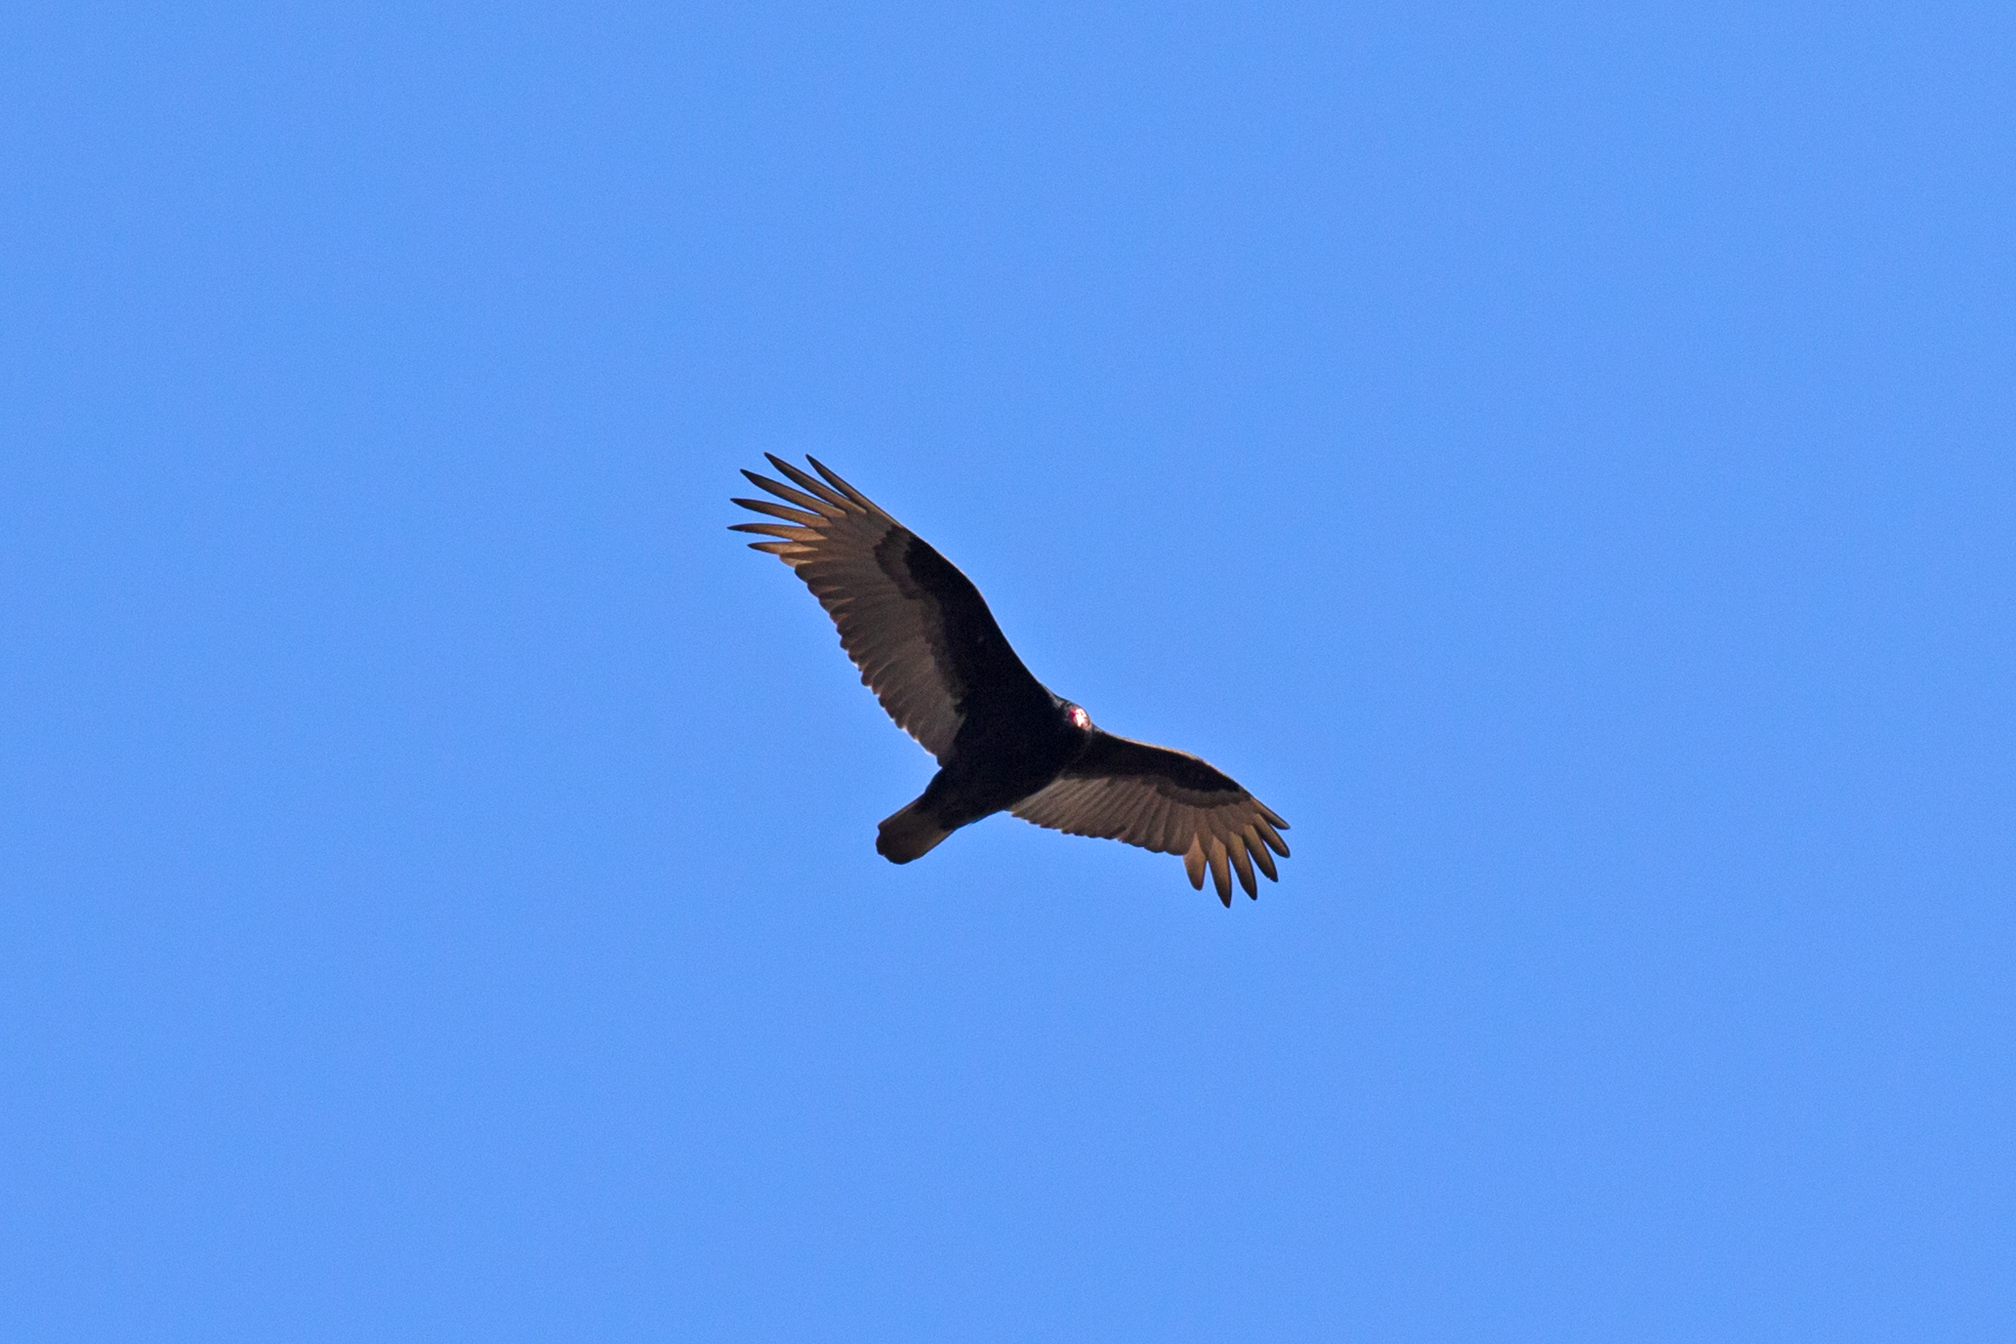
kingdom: Animalia
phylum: Chordata
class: Aves
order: Accipitriformes
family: Cathartidae
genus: Cathartes
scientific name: Cathartes aura
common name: Turkey vulture
